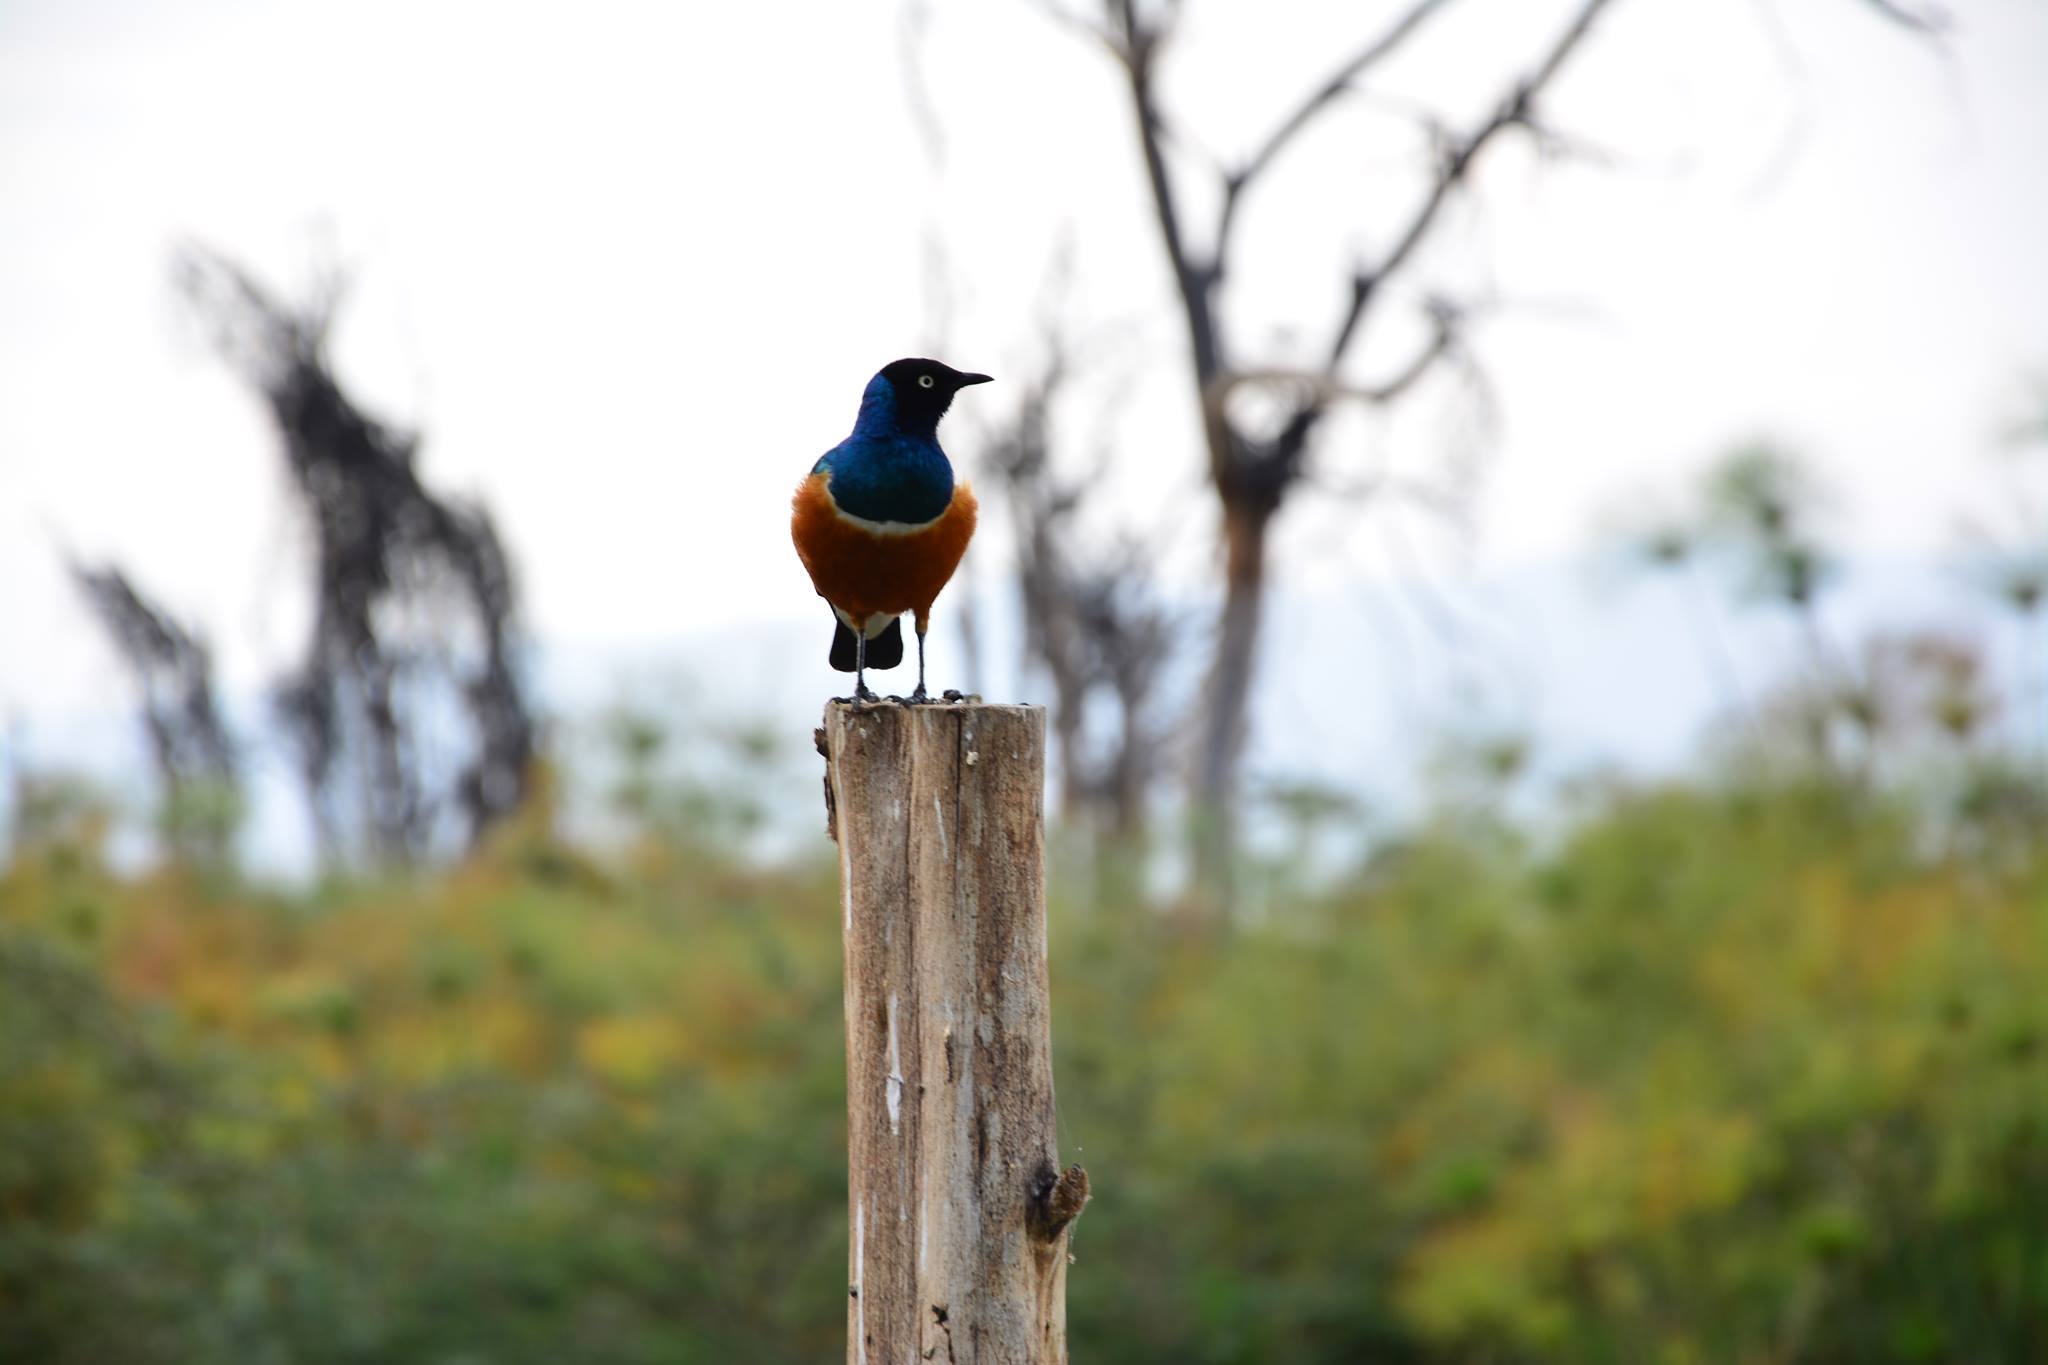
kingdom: Animalia
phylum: Chordata
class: Aves
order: Passeriformes
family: Sturnidae
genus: Lamprotornis
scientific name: Lamprotornis superbus
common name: Superb starling
